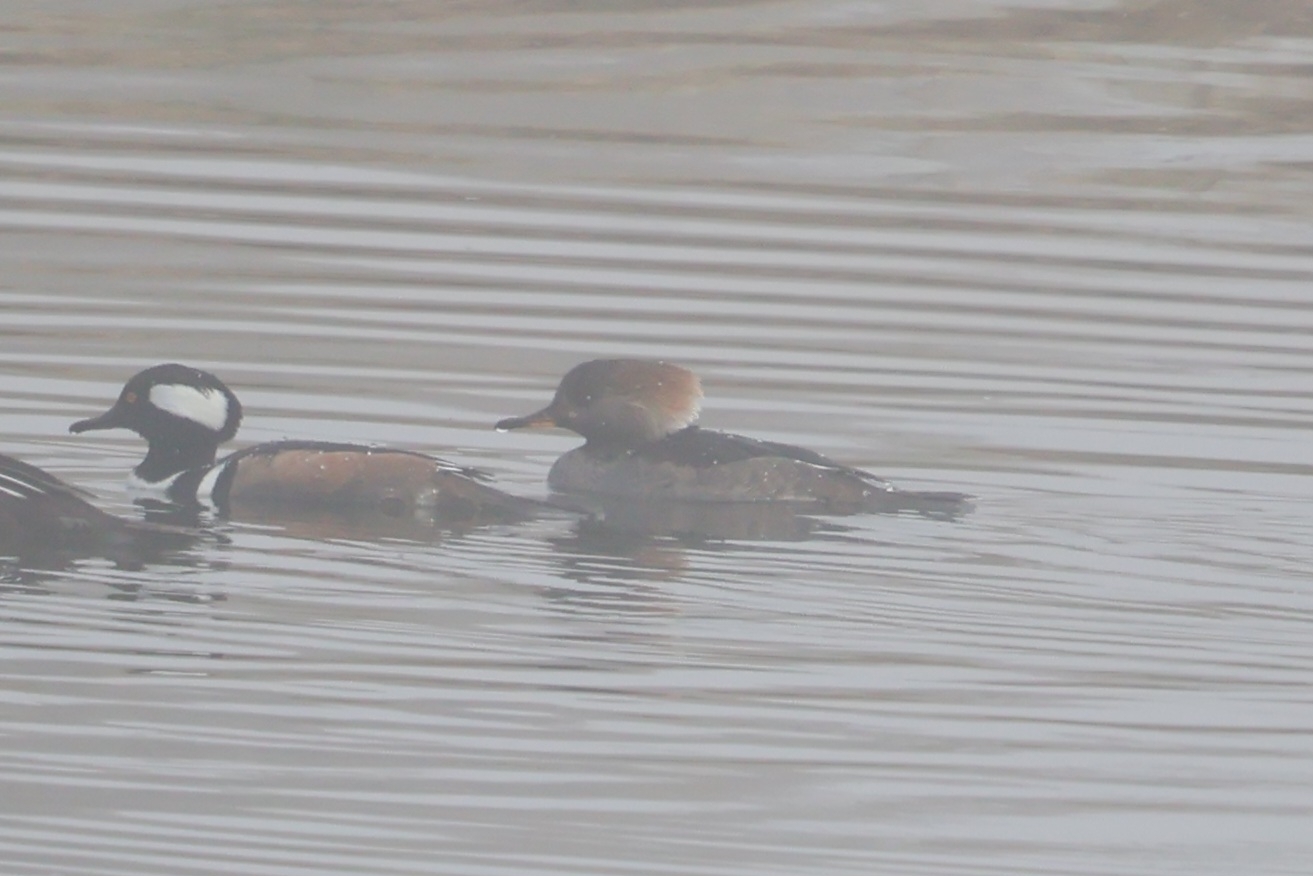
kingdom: Animalia
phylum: Chordata
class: Aves
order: Anseriformes
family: Anatidae
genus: Lophodytes
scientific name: Lophodytes cucullatus
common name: Hooded merganser
